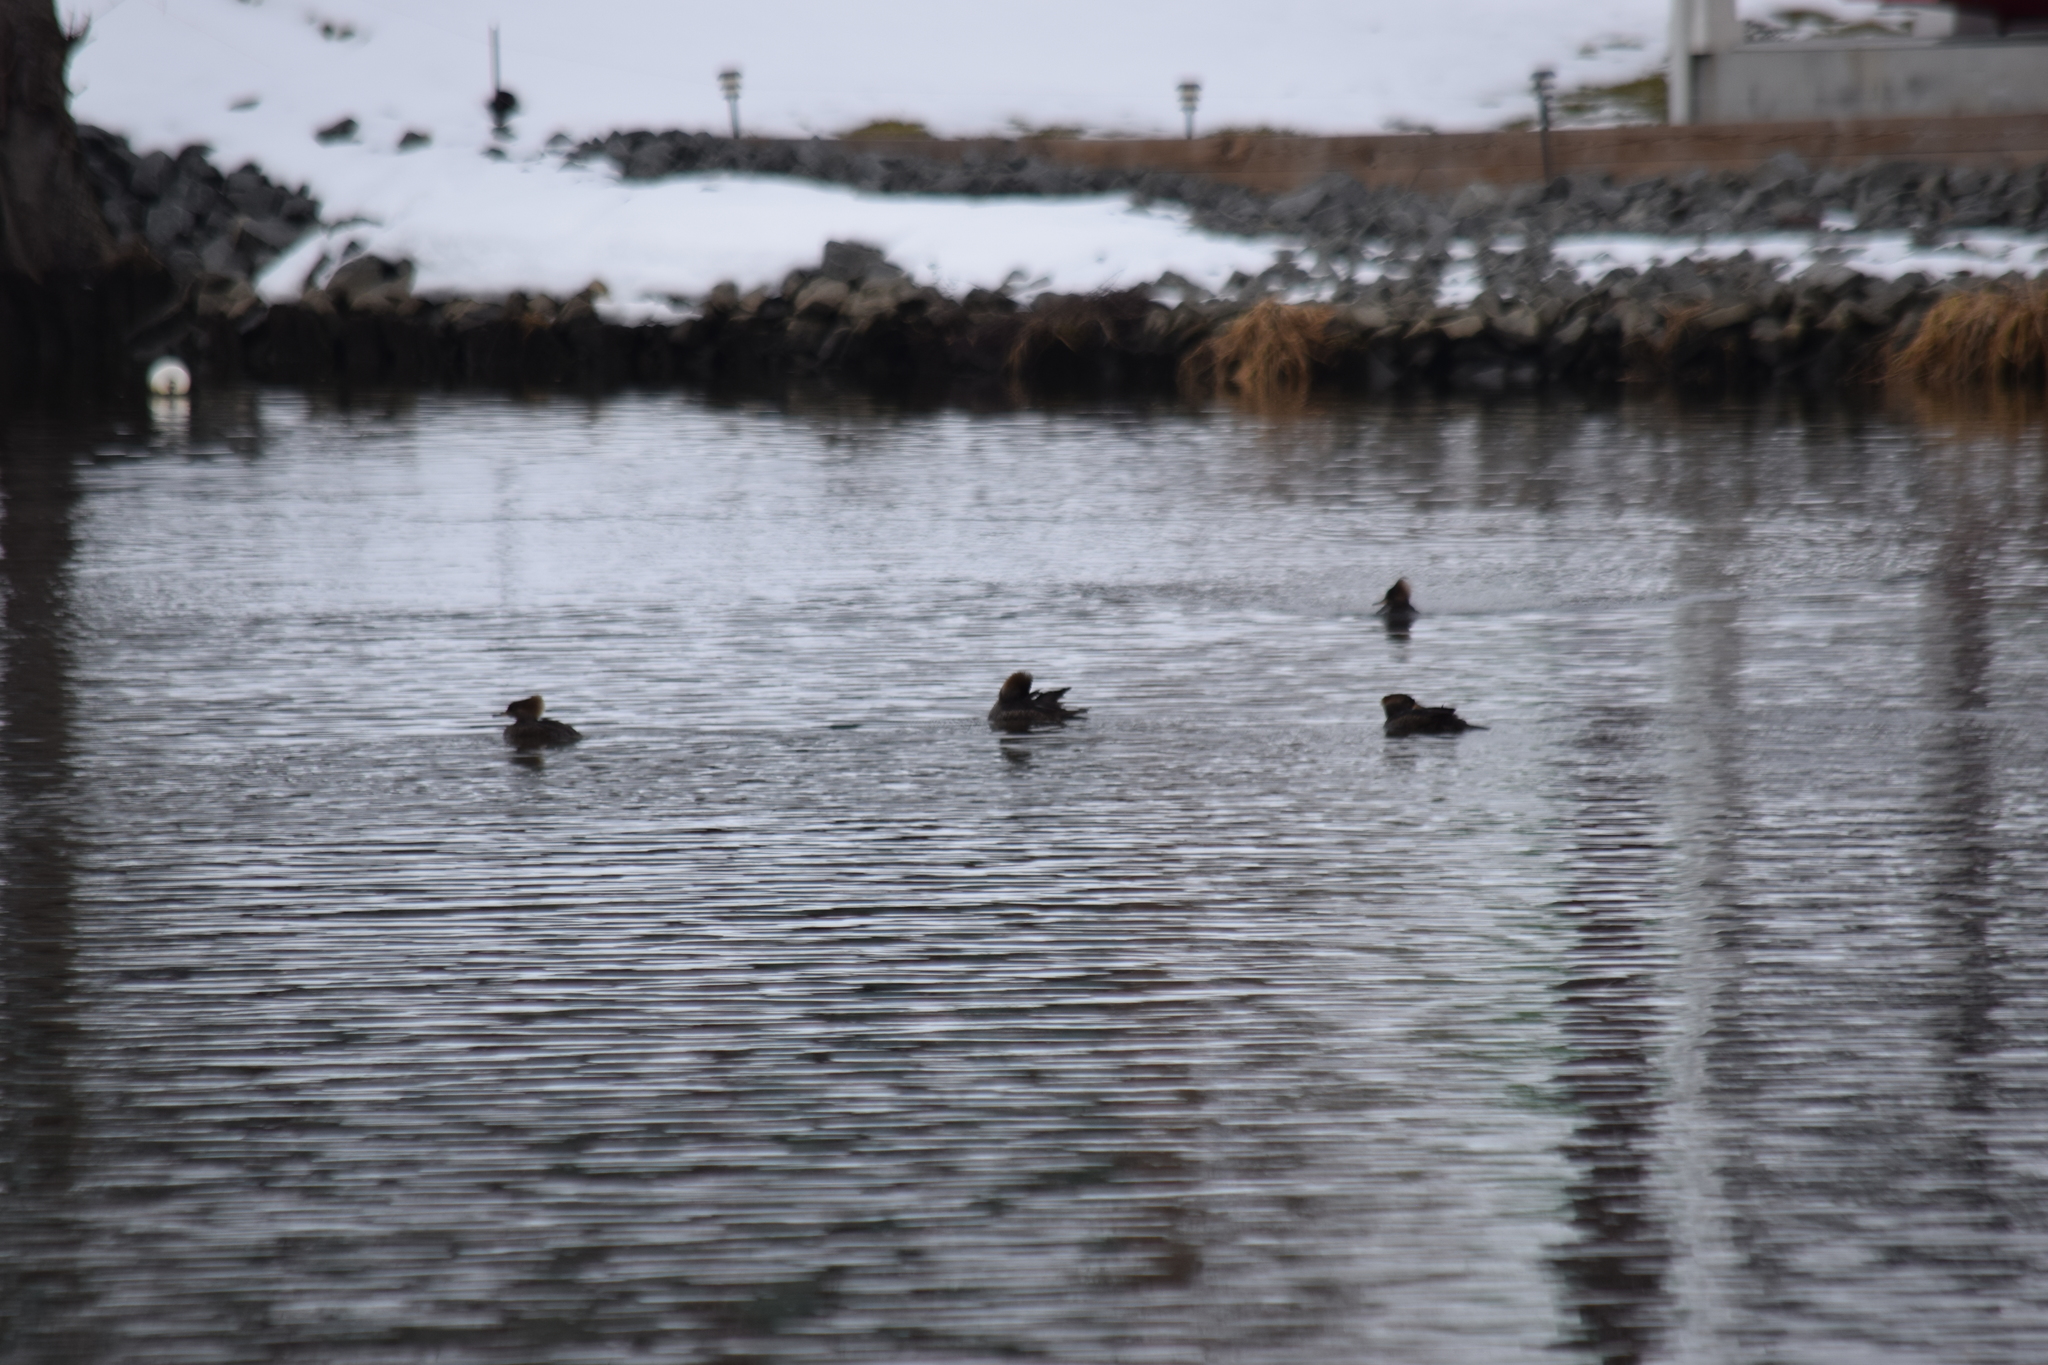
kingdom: Animalia
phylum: Chordata
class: Aves
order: Anseriformes
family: Anatidae
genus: Lophodytes
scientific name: Lophodytes cucullatus
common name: Hooded merganser
